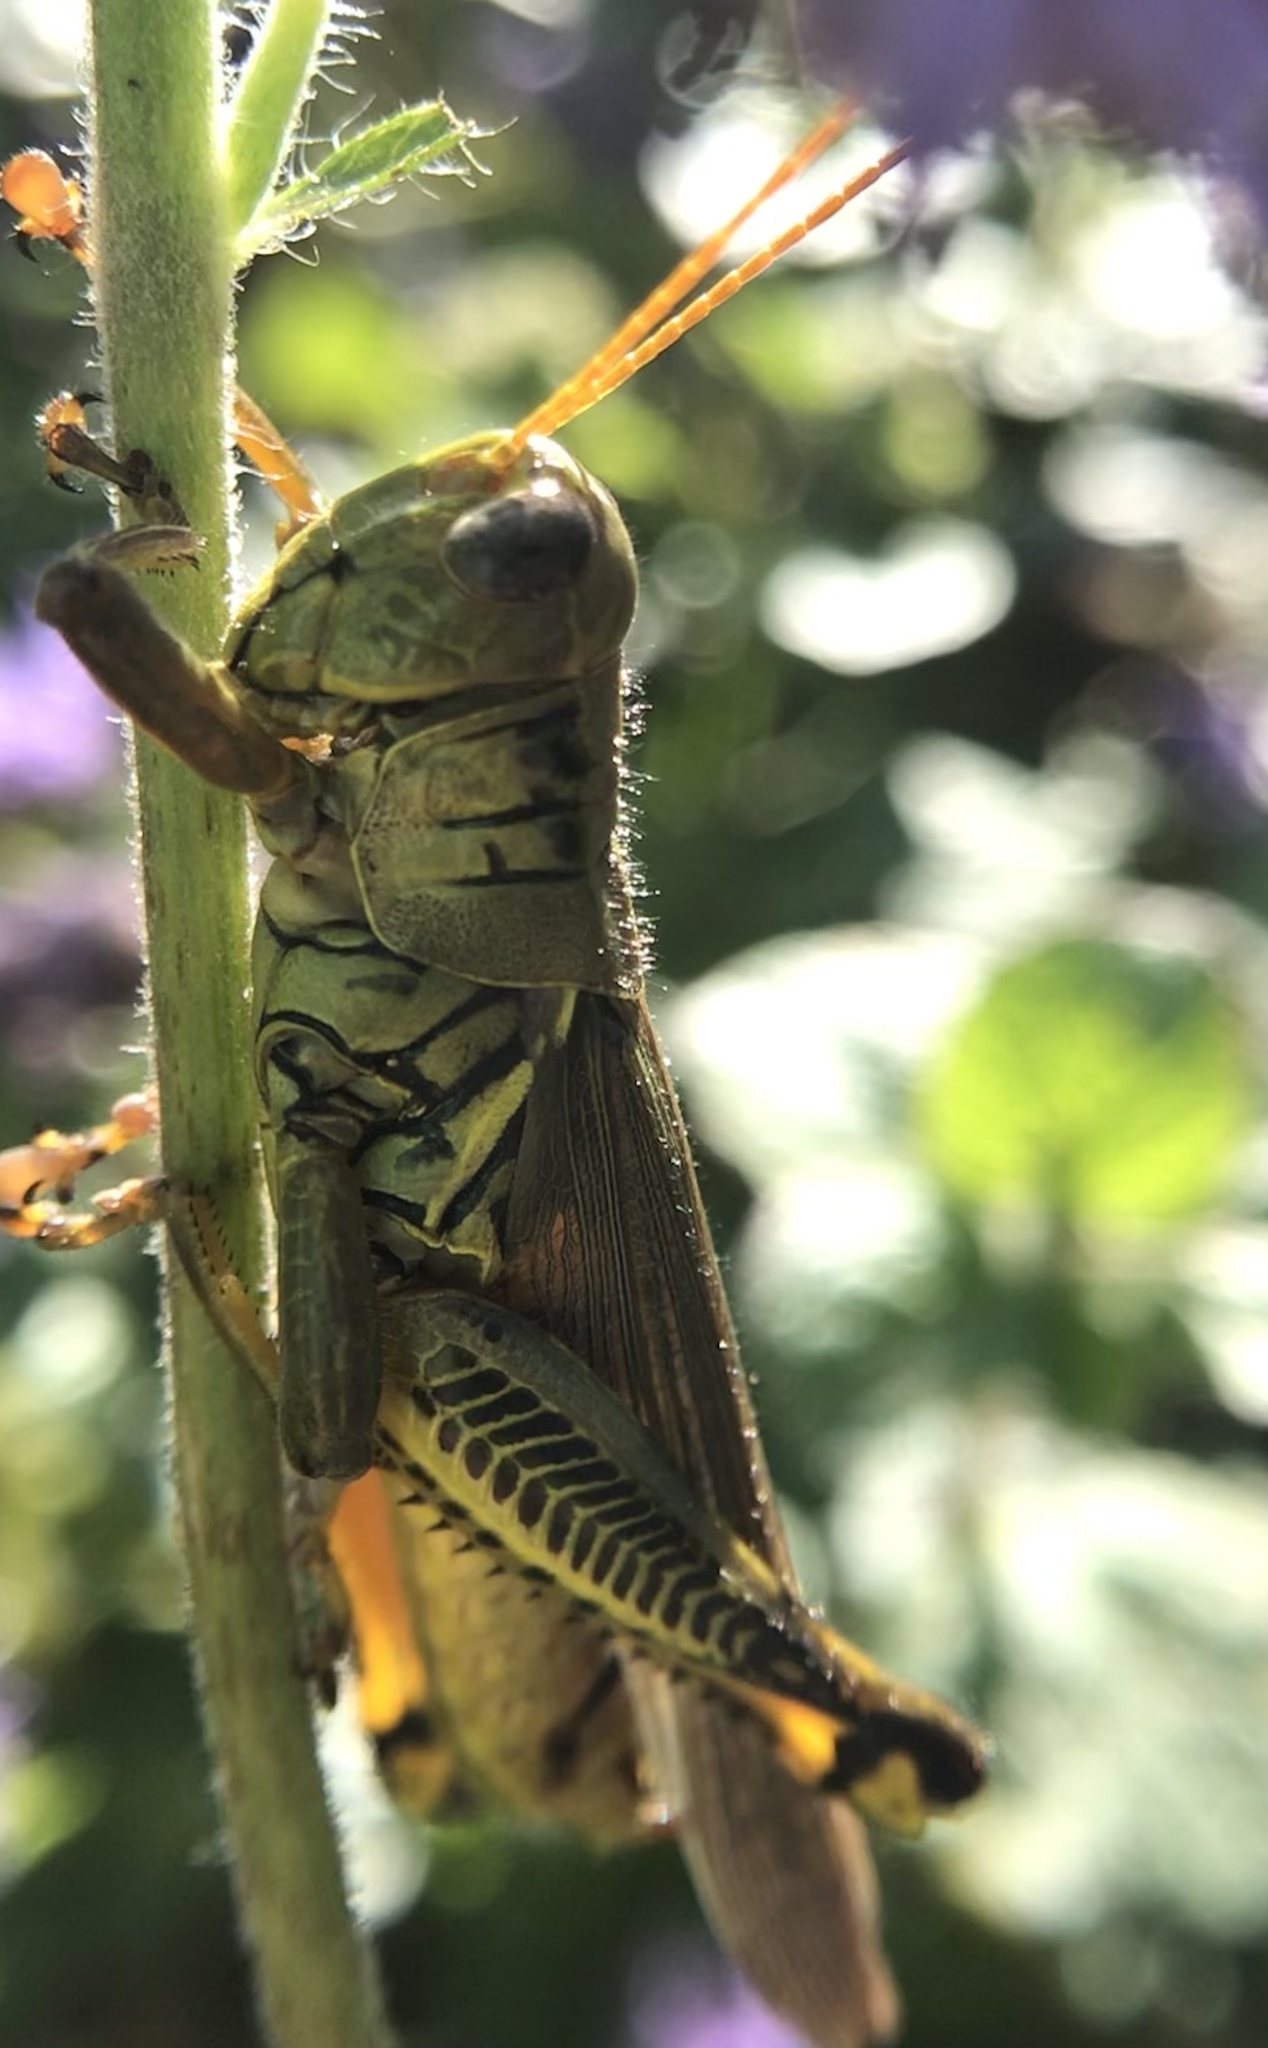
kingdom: Animalia
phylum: Arthropoda
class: Insecta
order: Orthoptera
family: Acrididae
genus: Melanoplus
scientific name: Melanoplus differentialis
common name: Differential grasshopper
